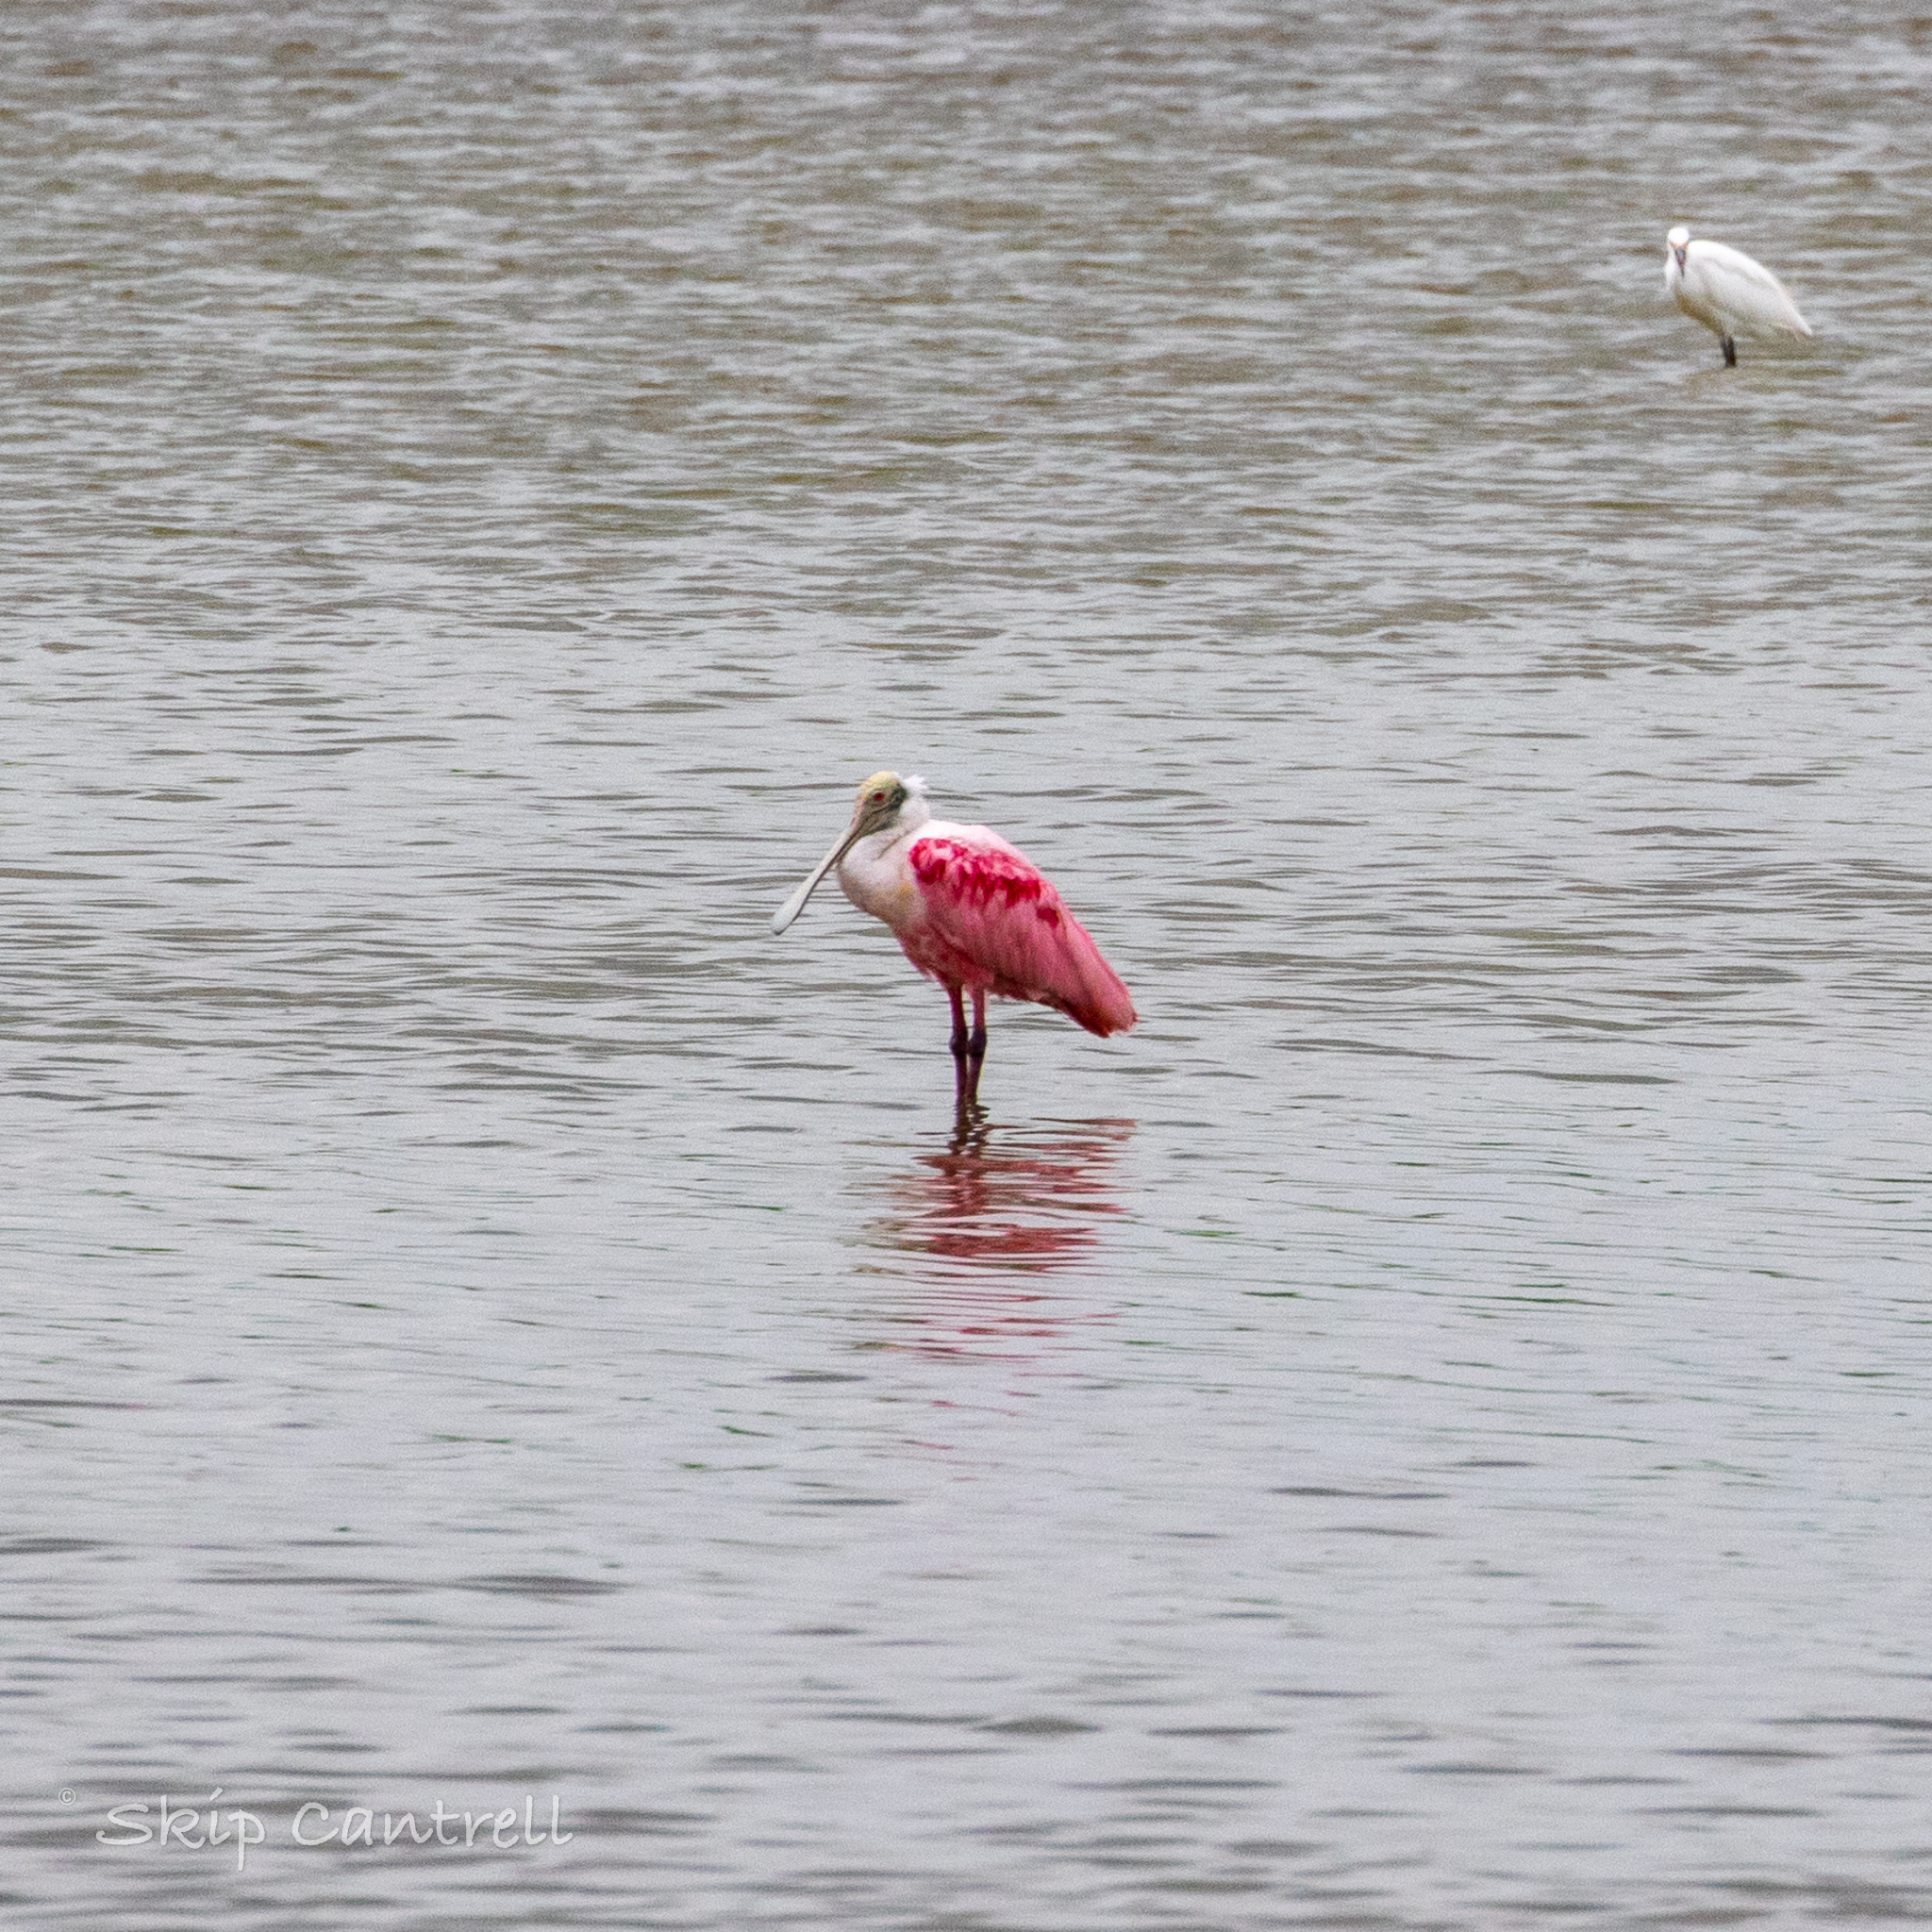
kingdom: Animalia
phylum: Chordata
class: Aves
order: Pelecaniformes
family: Threskiornithidae
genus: Platalea
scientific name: Platalea ajaja
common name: Roseate spoonbill
